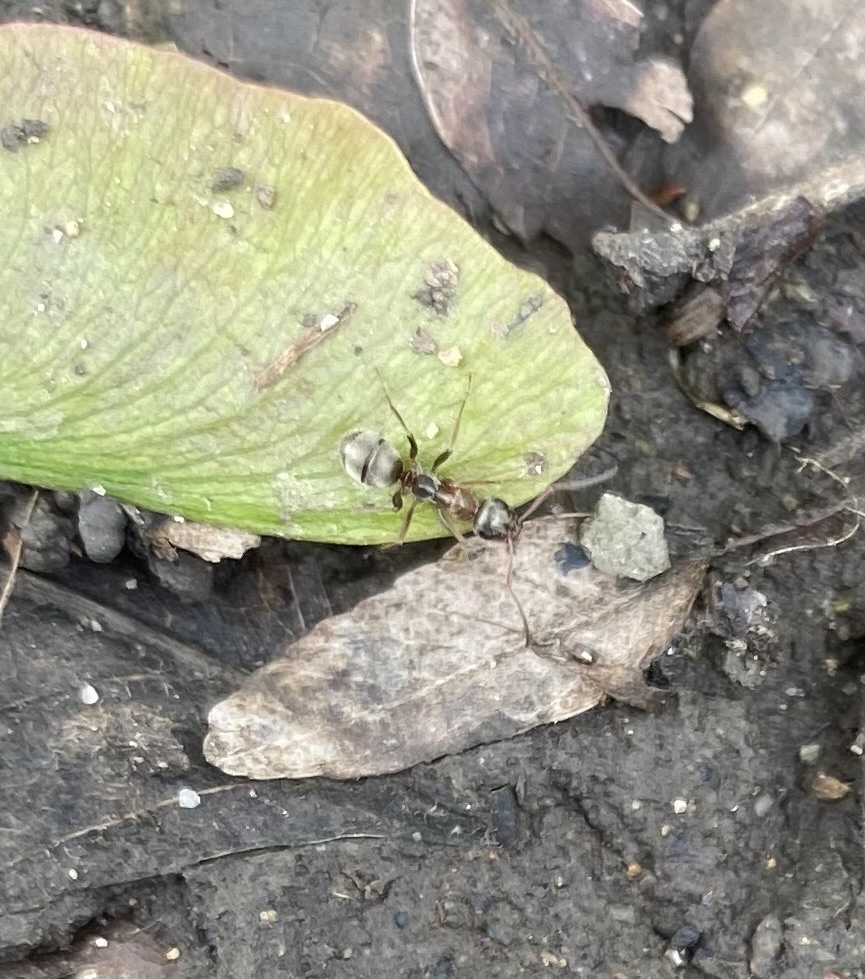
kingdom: Animalia
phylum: Arthropoda
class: Insecta
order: Hymenoptera
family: Formicidae
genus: Formica
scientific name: Formica cinerea
